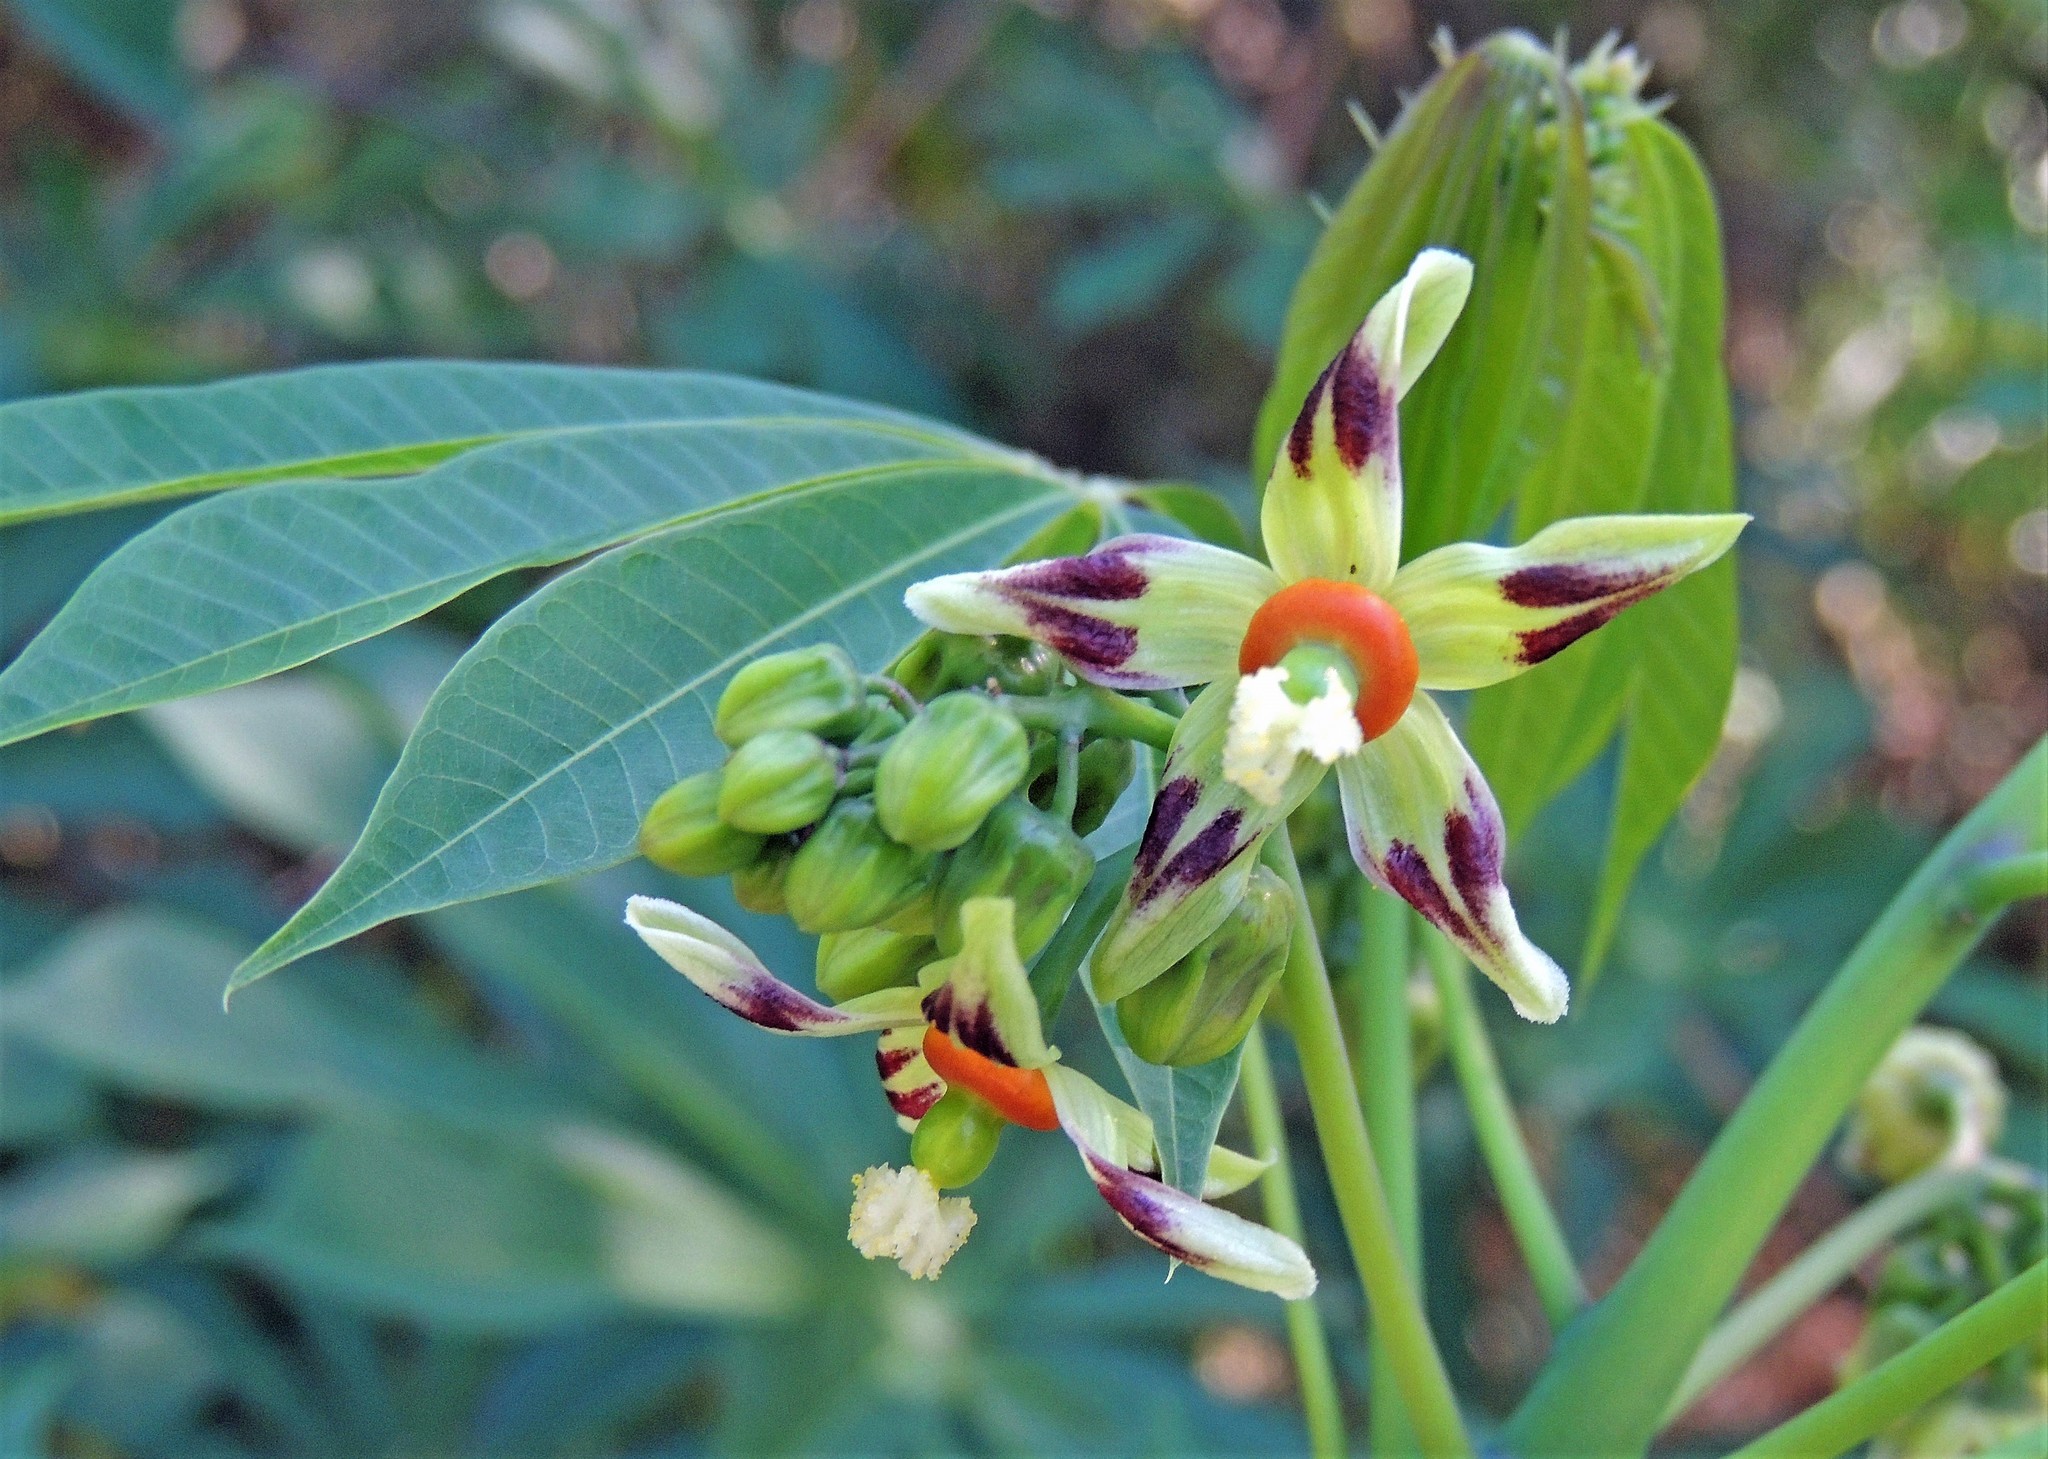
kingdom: Plantae
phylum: Tracheophyta
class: Magnoliopsida
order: Malpighiales
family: Euphorbiaceae
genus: Manihot
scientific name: Manihot grahamii
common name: Graham's manihot
